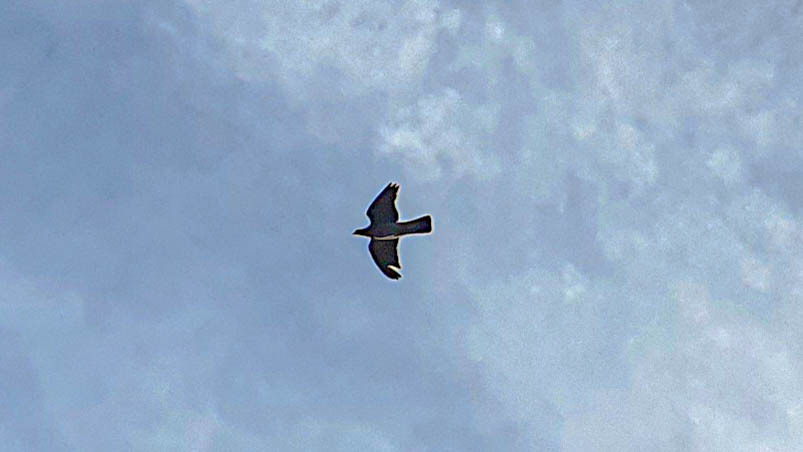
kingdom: Animalia
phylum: Chordata
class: Aves
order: Columbiformes
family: Columbidae
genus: Columba
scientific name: Columba palumbus
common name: Common wood pigeon
